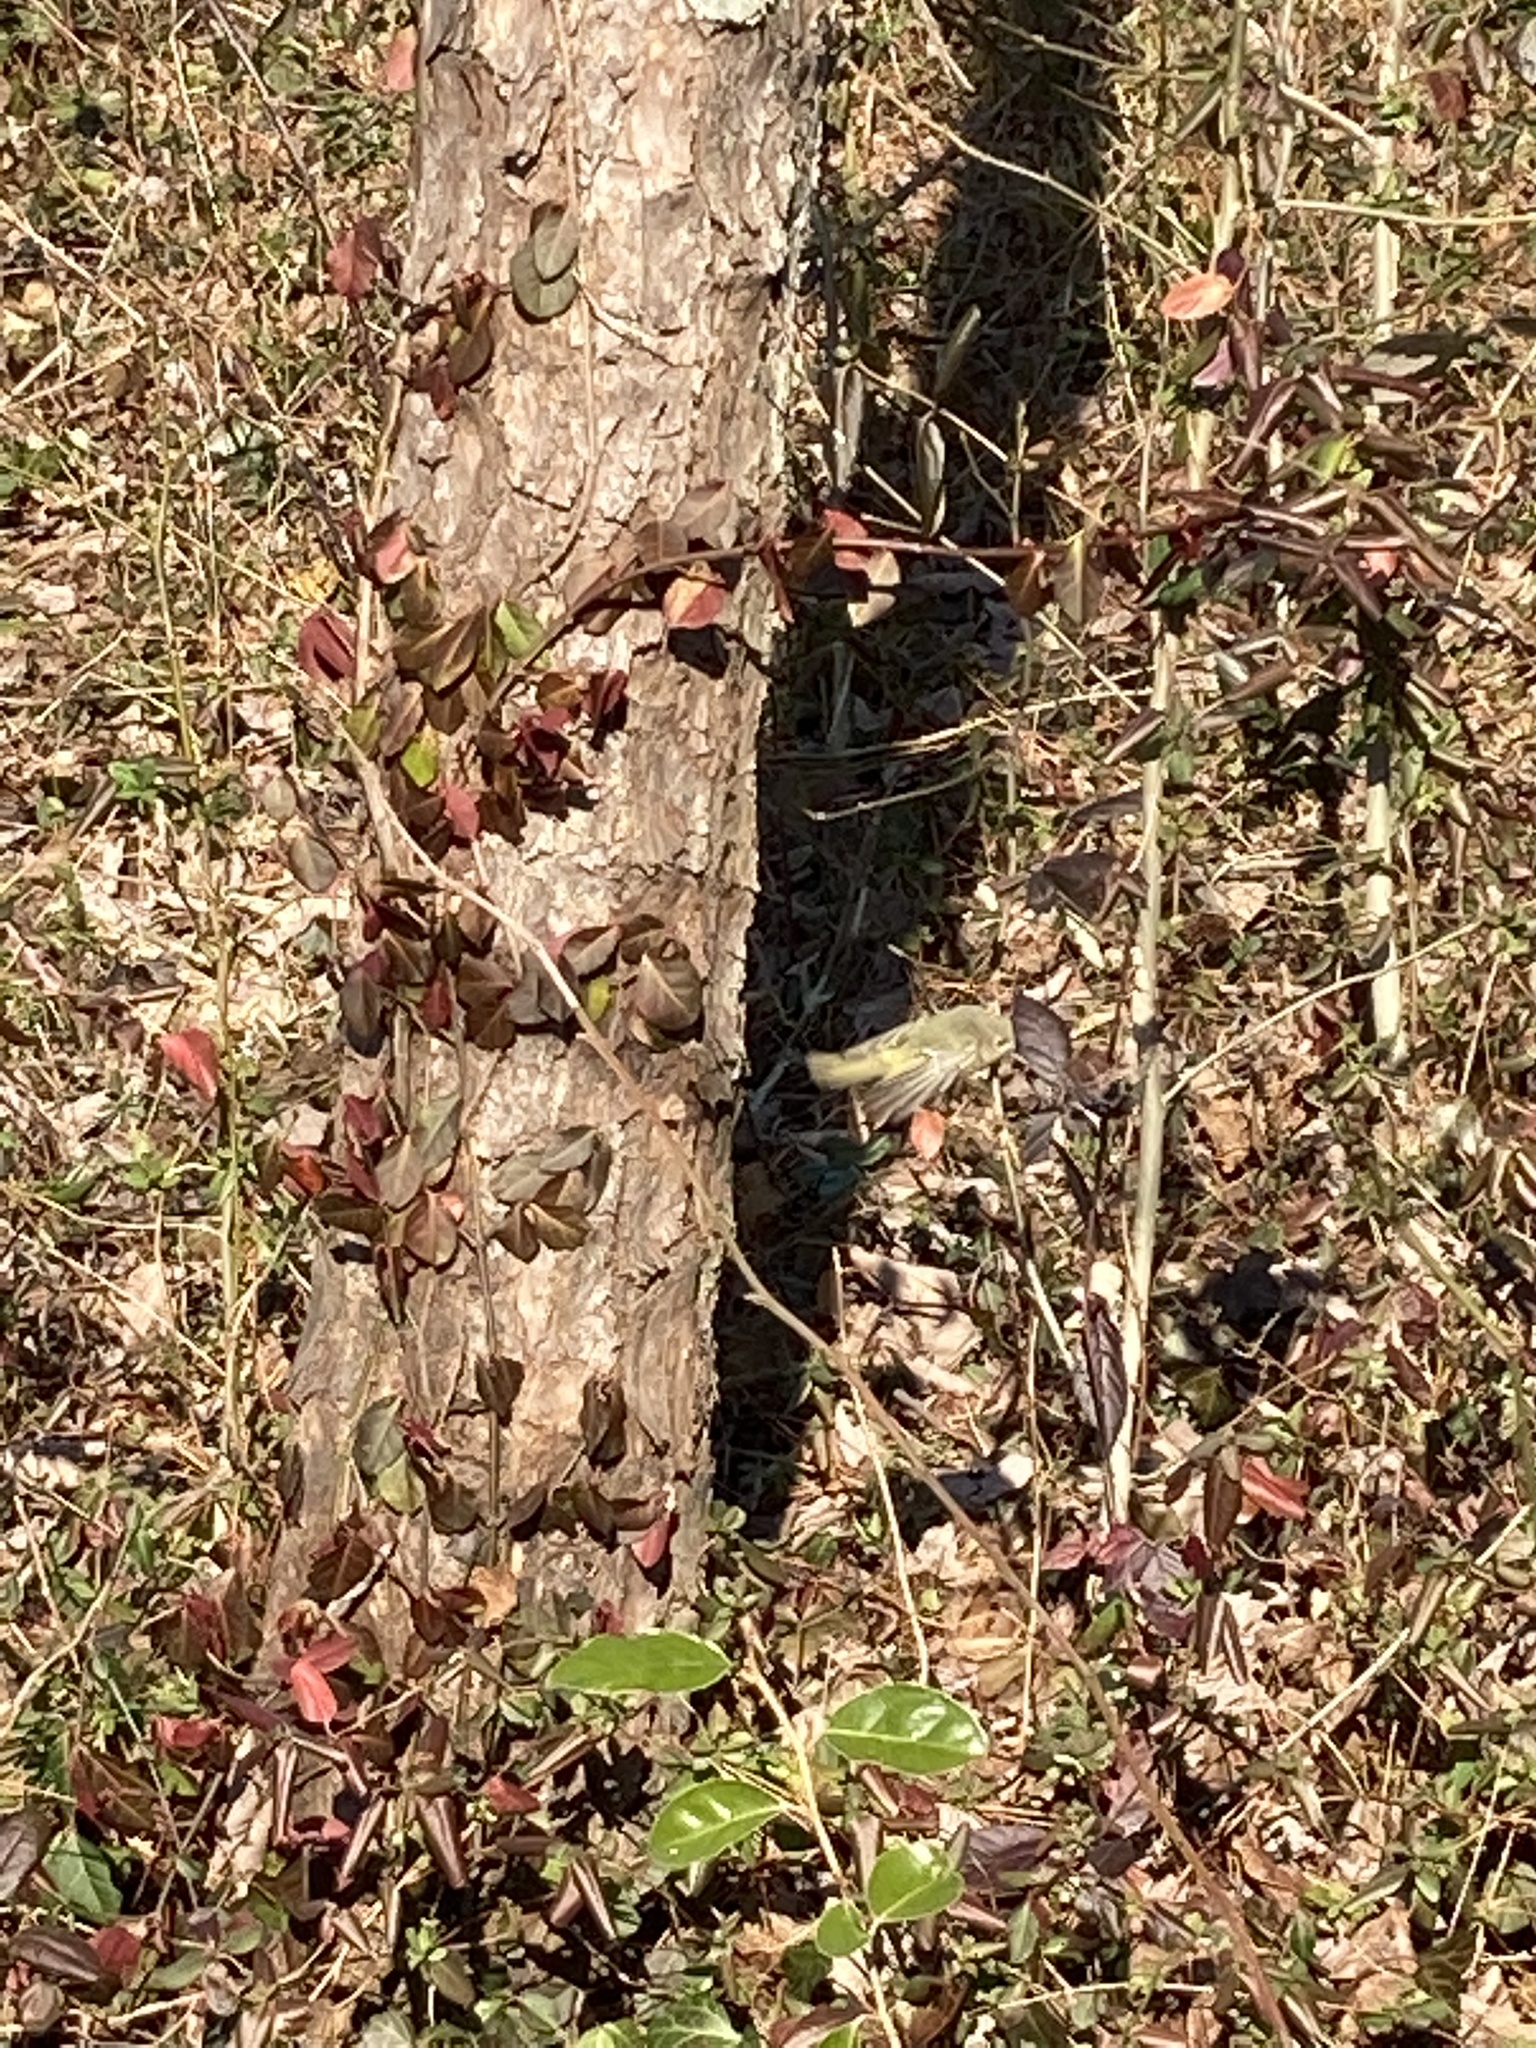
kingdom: Animalia
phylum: Chordata
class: Aves
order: Passeriformes
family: Regulidae
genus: Regulus
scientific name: Regulus calendula
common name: Ruby-crowned kinglet
